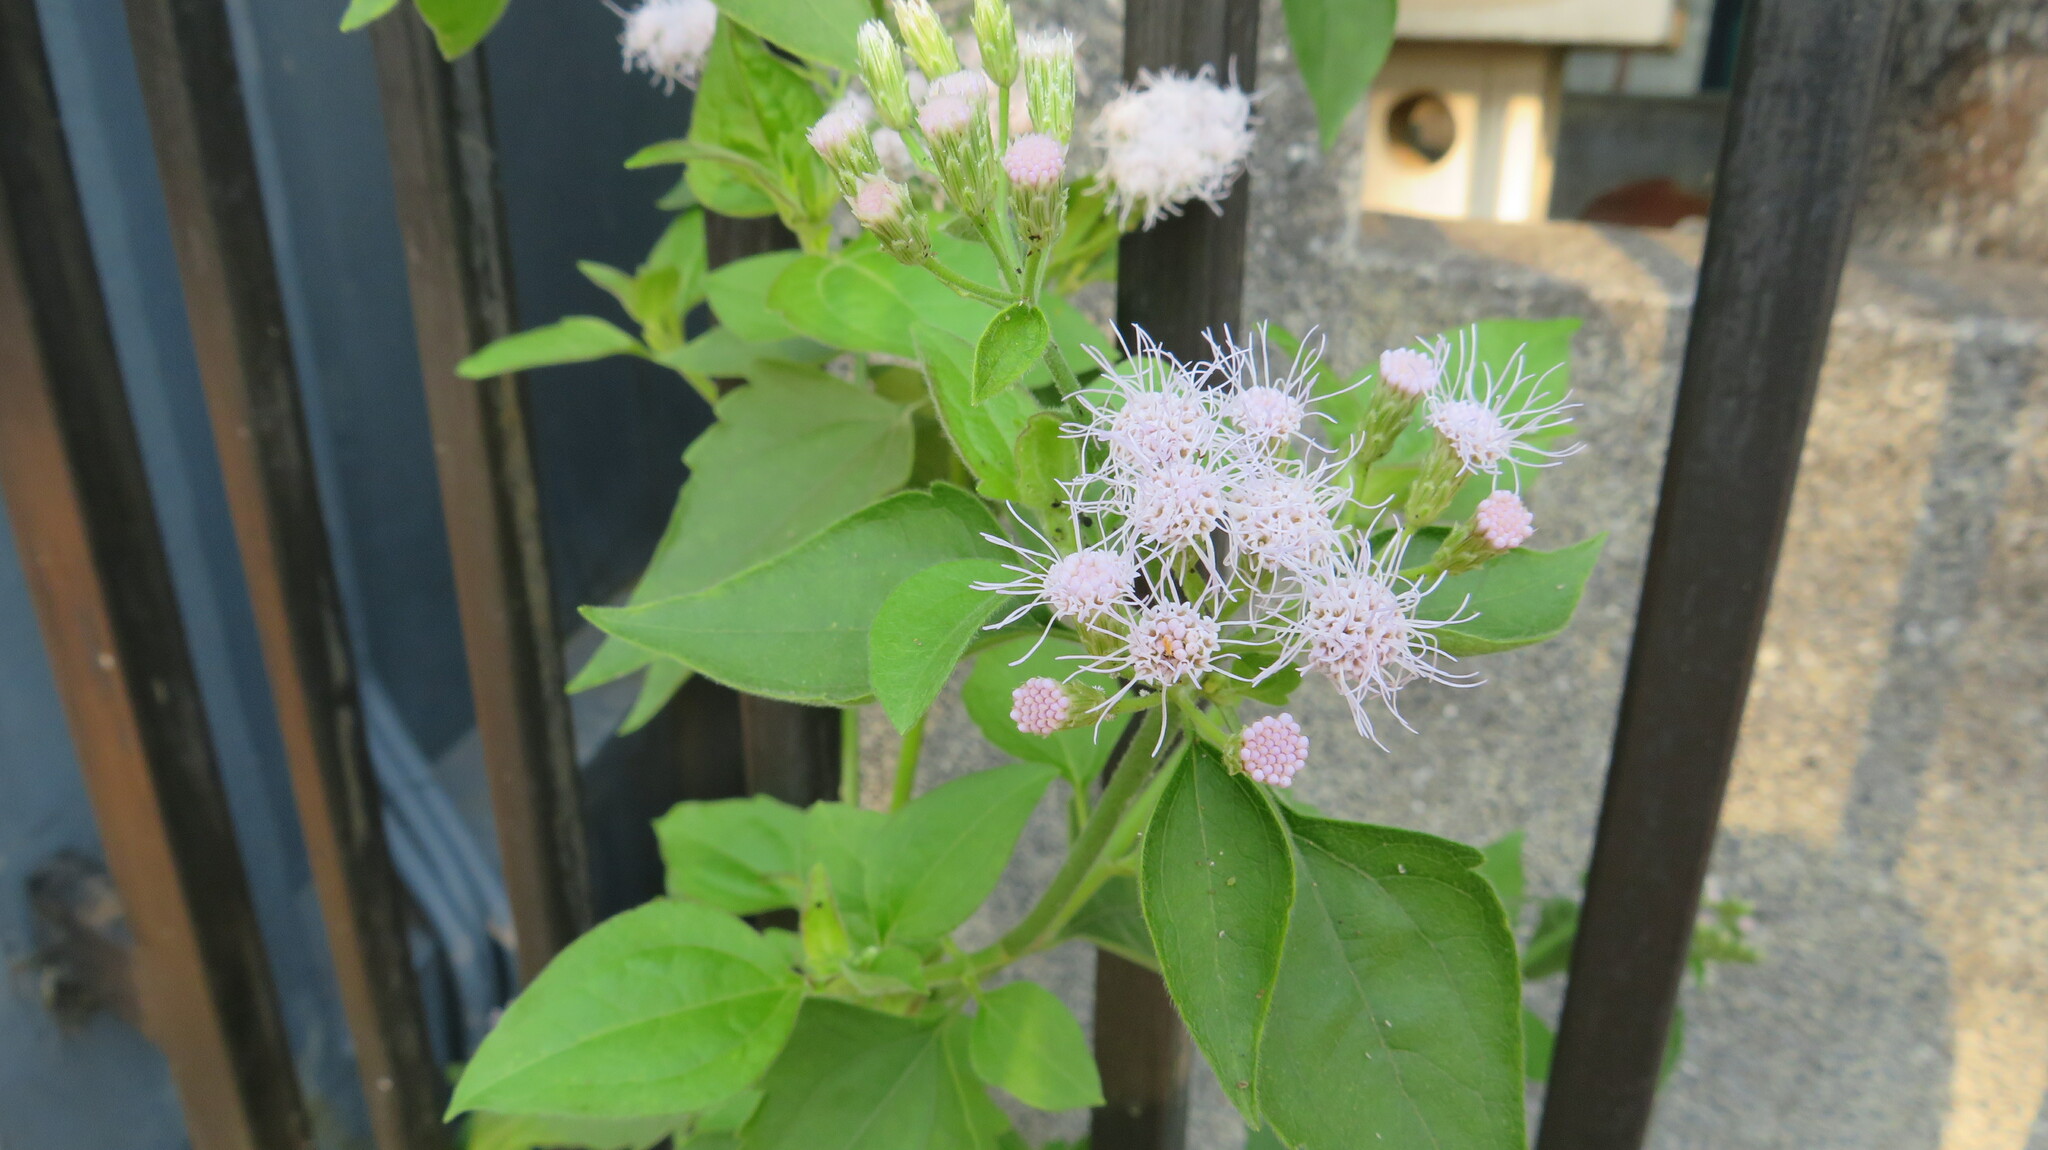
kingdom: Plantae
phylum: Tracheophyta
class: Magnoliopsida
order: Asterales
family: Asteraceae
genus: Chromolaena
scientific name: Chromolaena odorata
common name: Siamweed
